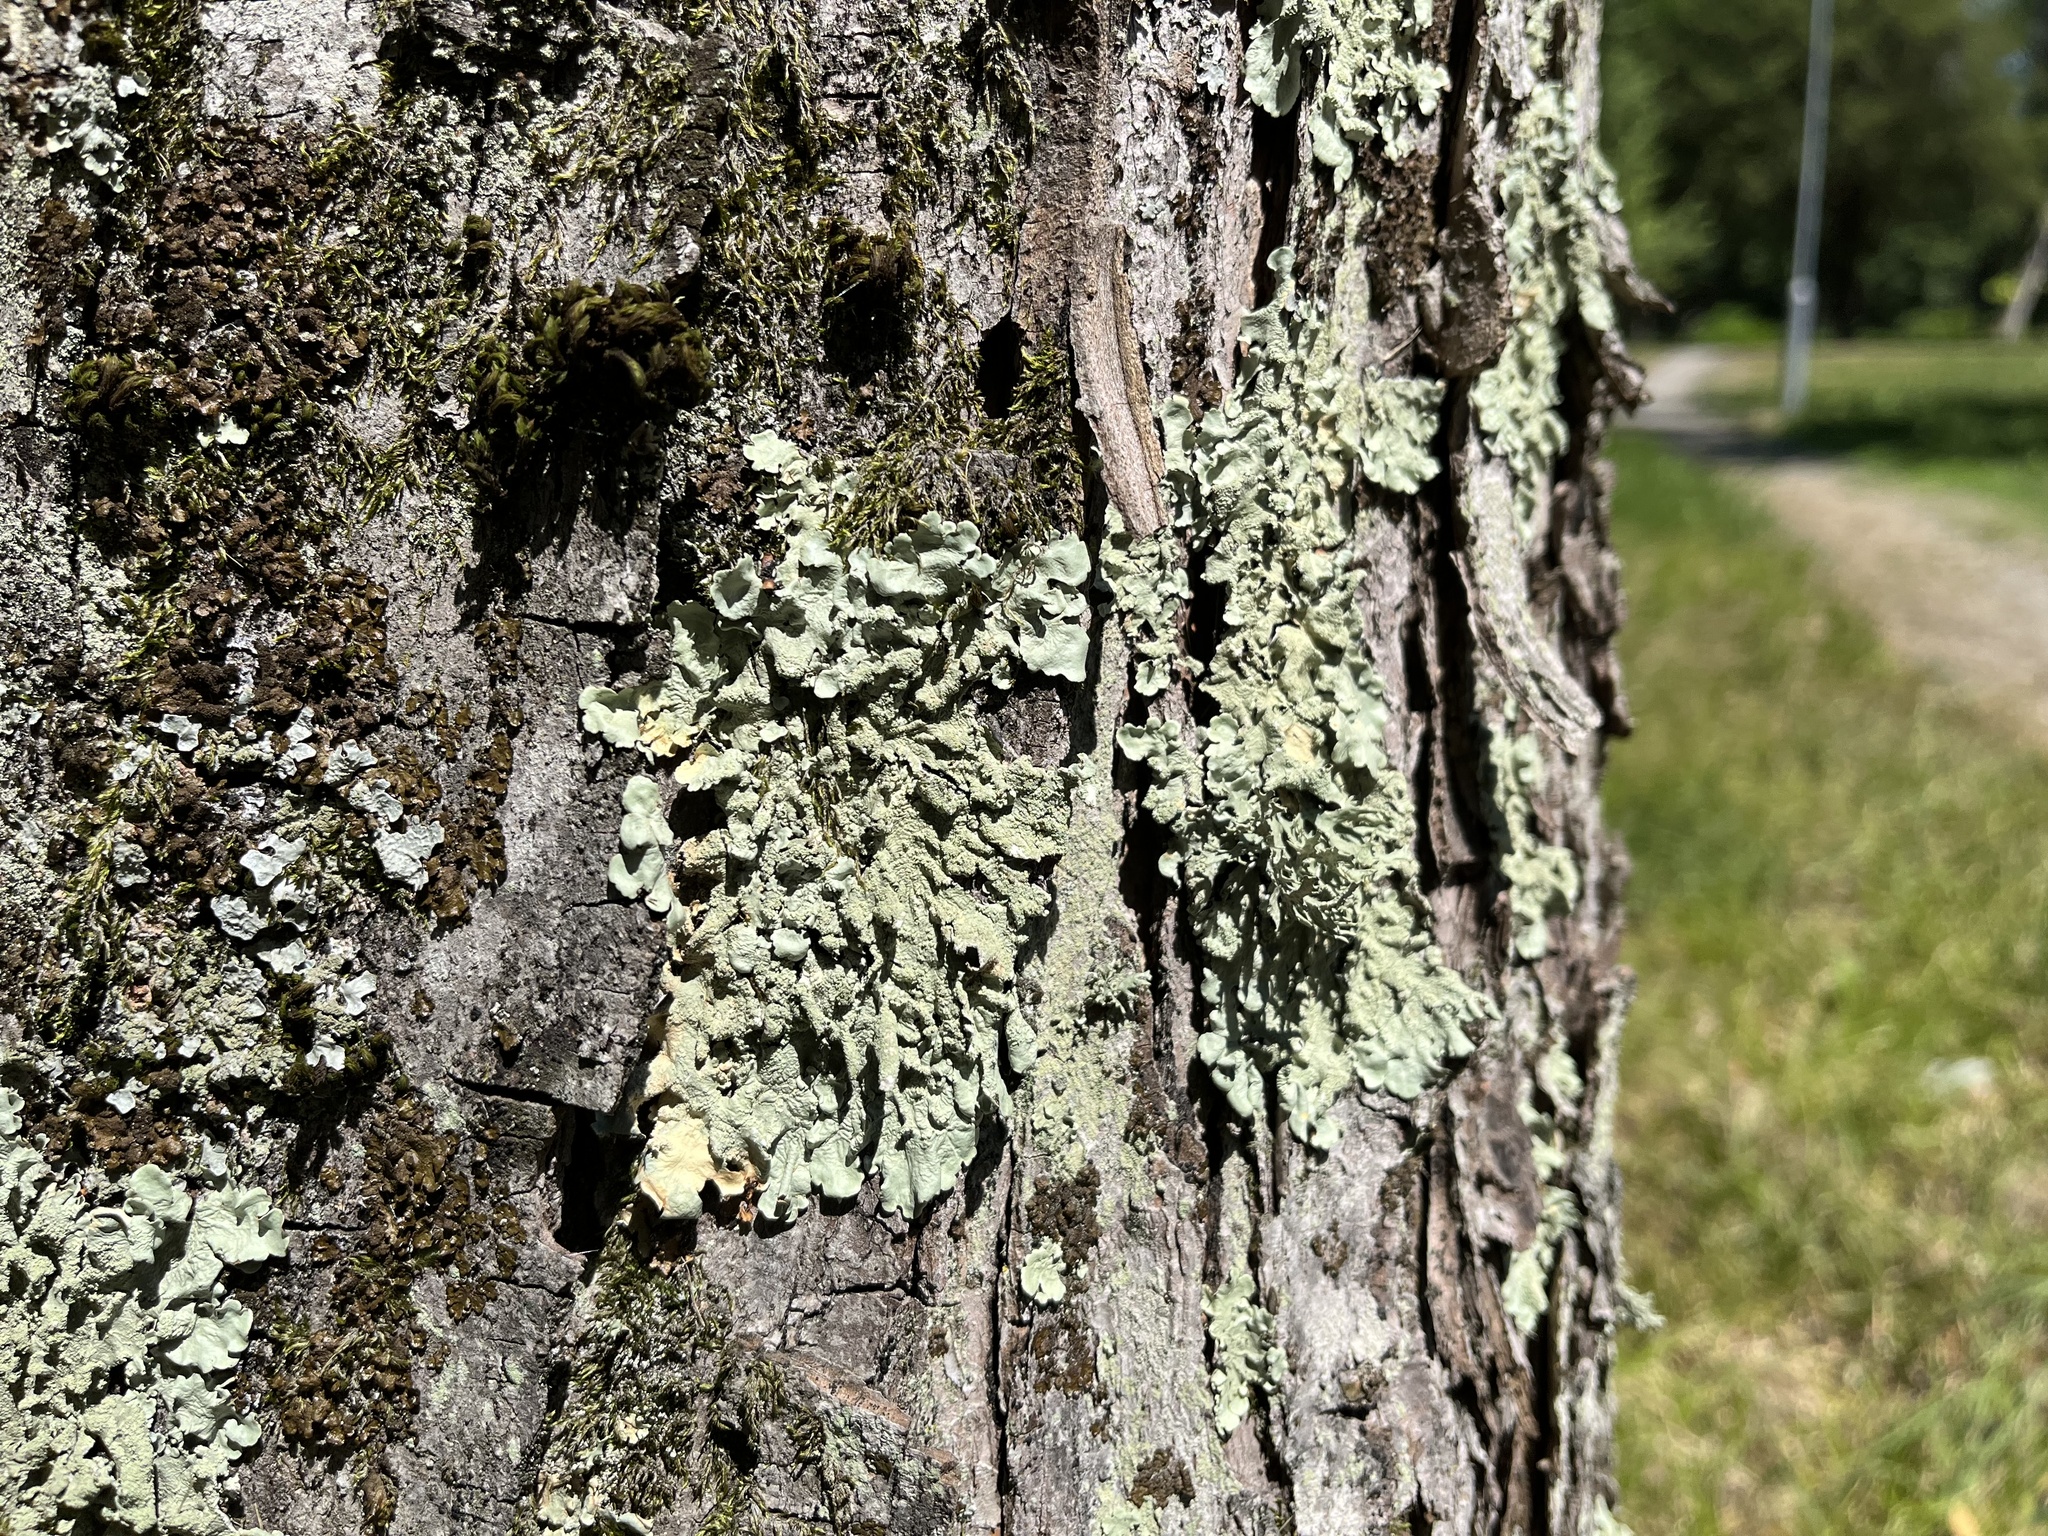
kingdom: Fungi
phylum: Ascomycota
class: Lecanoromycetes
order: Lecanorales
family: Parmeliaceae
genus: Flavoparmelia
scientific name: Flavoparmelia caperata
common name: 40-mile per hour lichen
